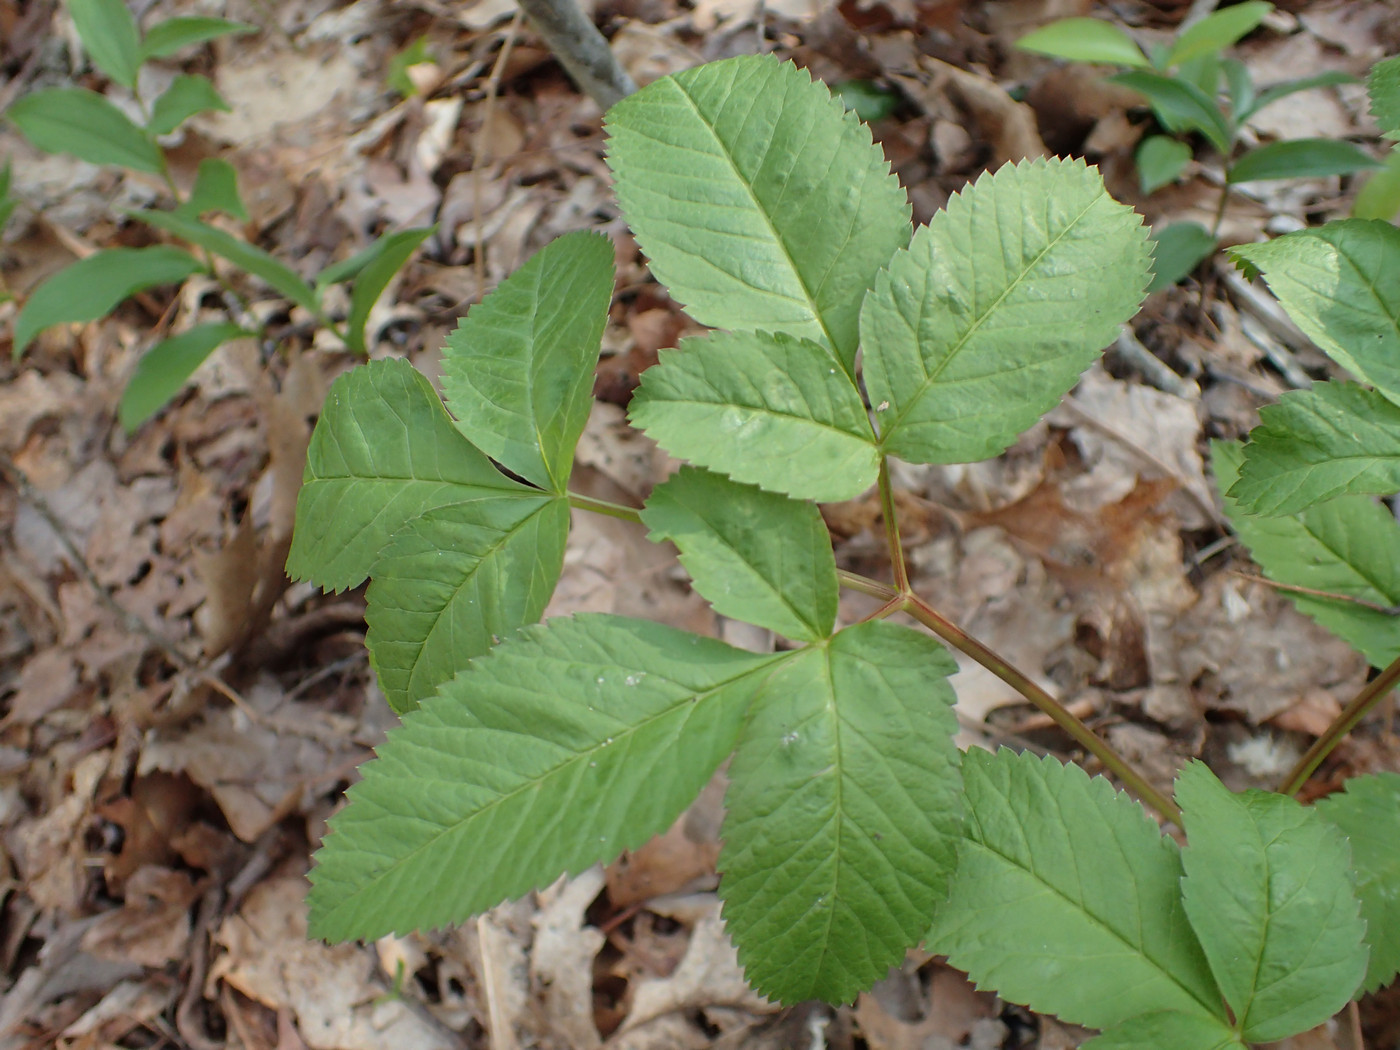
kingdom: Plantae
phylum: Tracheophyta
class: Magnoliopsida
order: Apiales
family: Apiaceae
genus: Ligusticum
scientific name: Ligusticum canadense
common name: American lovage
